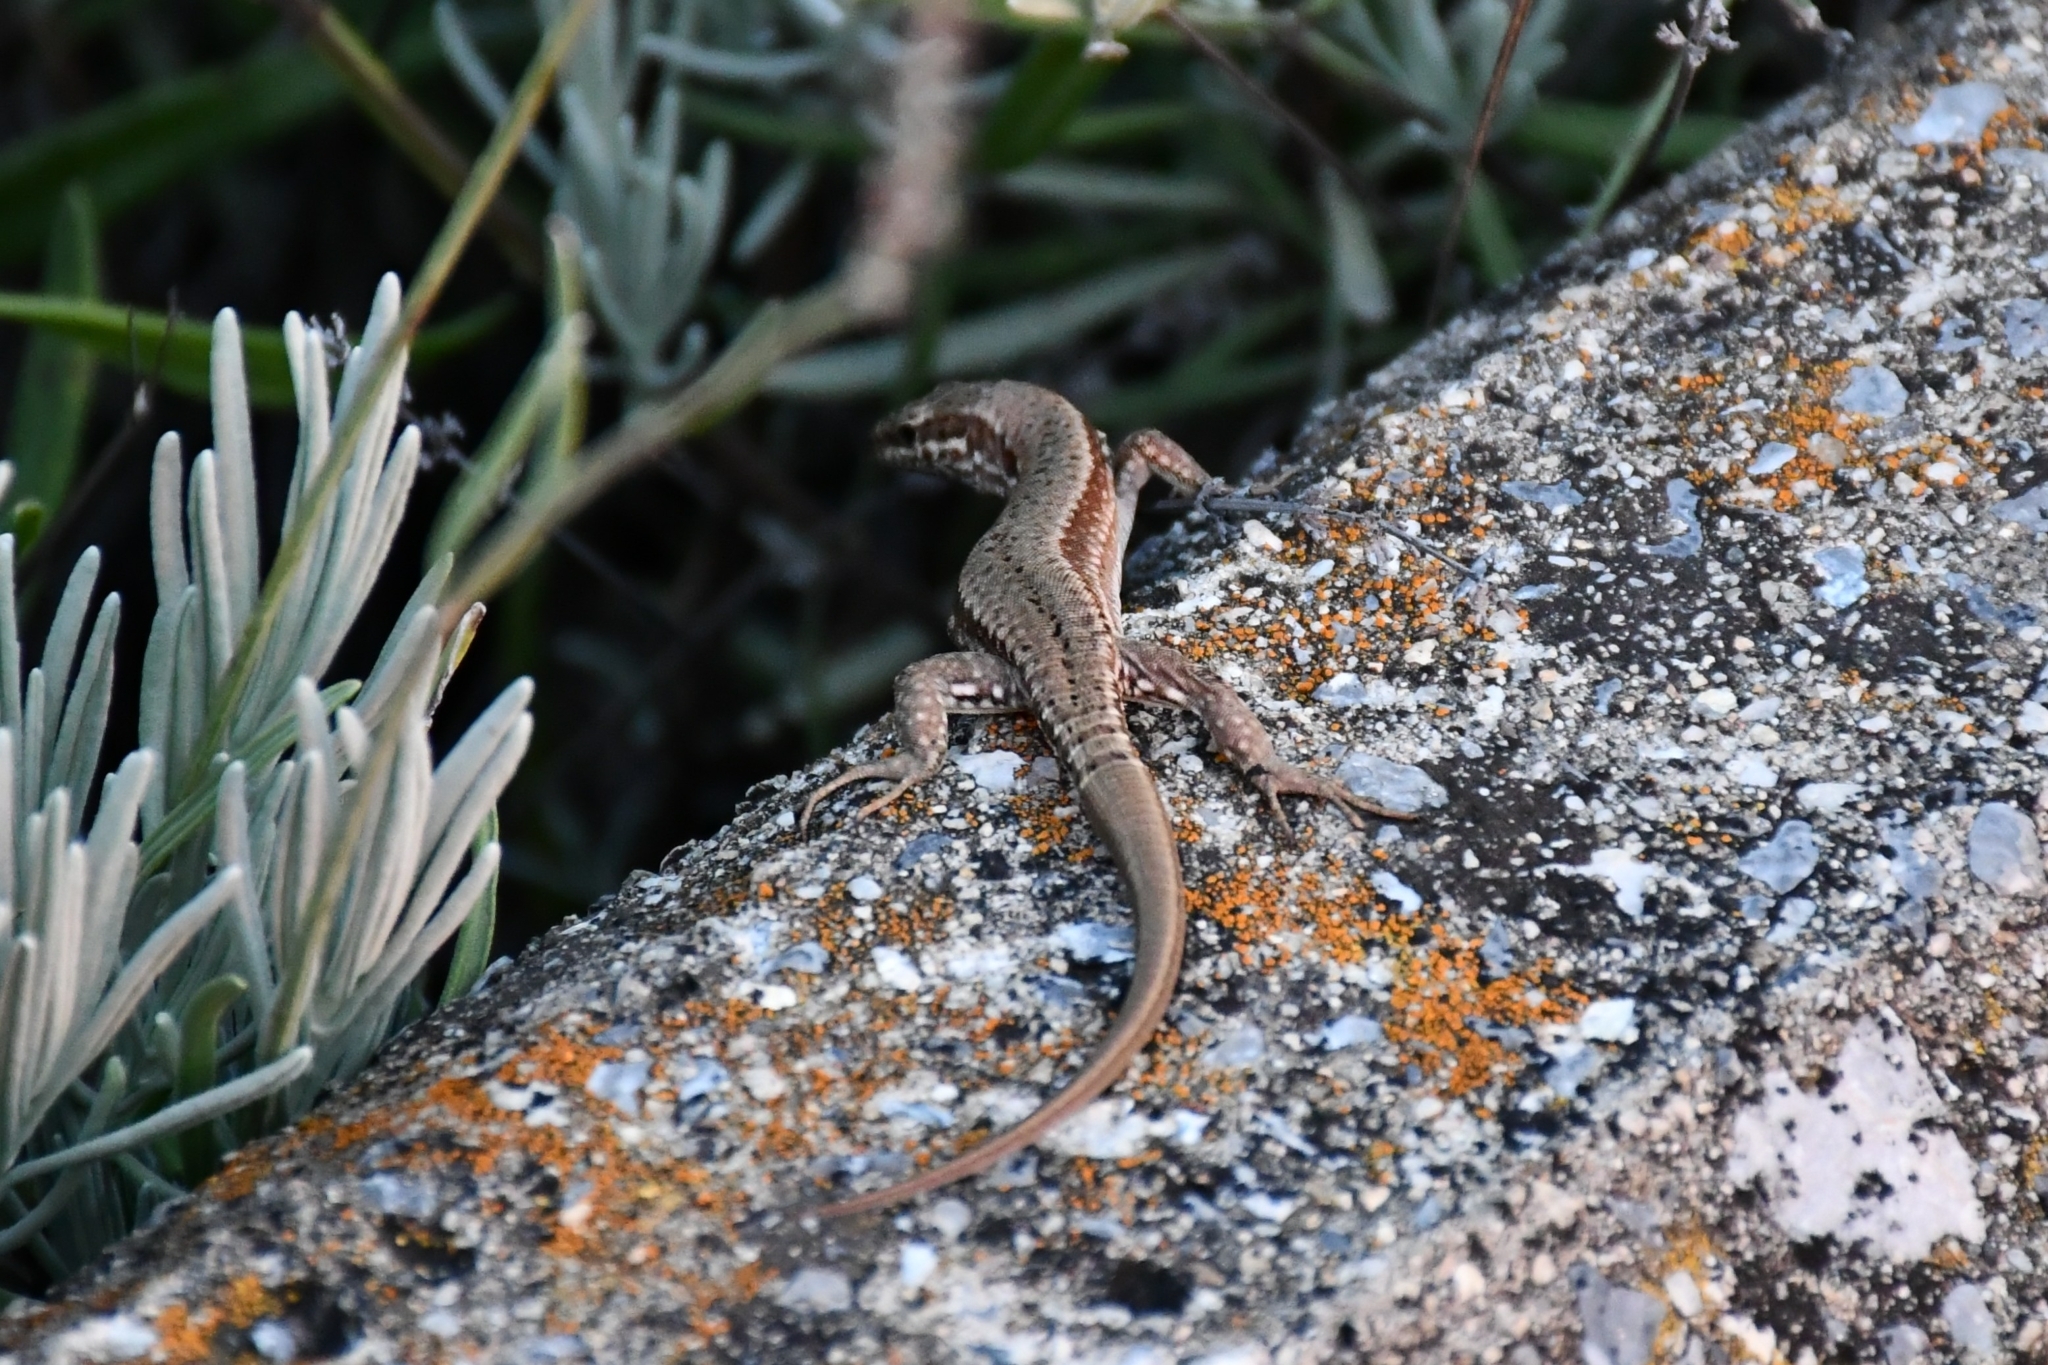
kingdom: Animalia
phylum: Chordata
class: Squamata
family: Lacertidae
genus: Podarcis
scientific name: Podarcis muralis
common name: Common wall lizard
